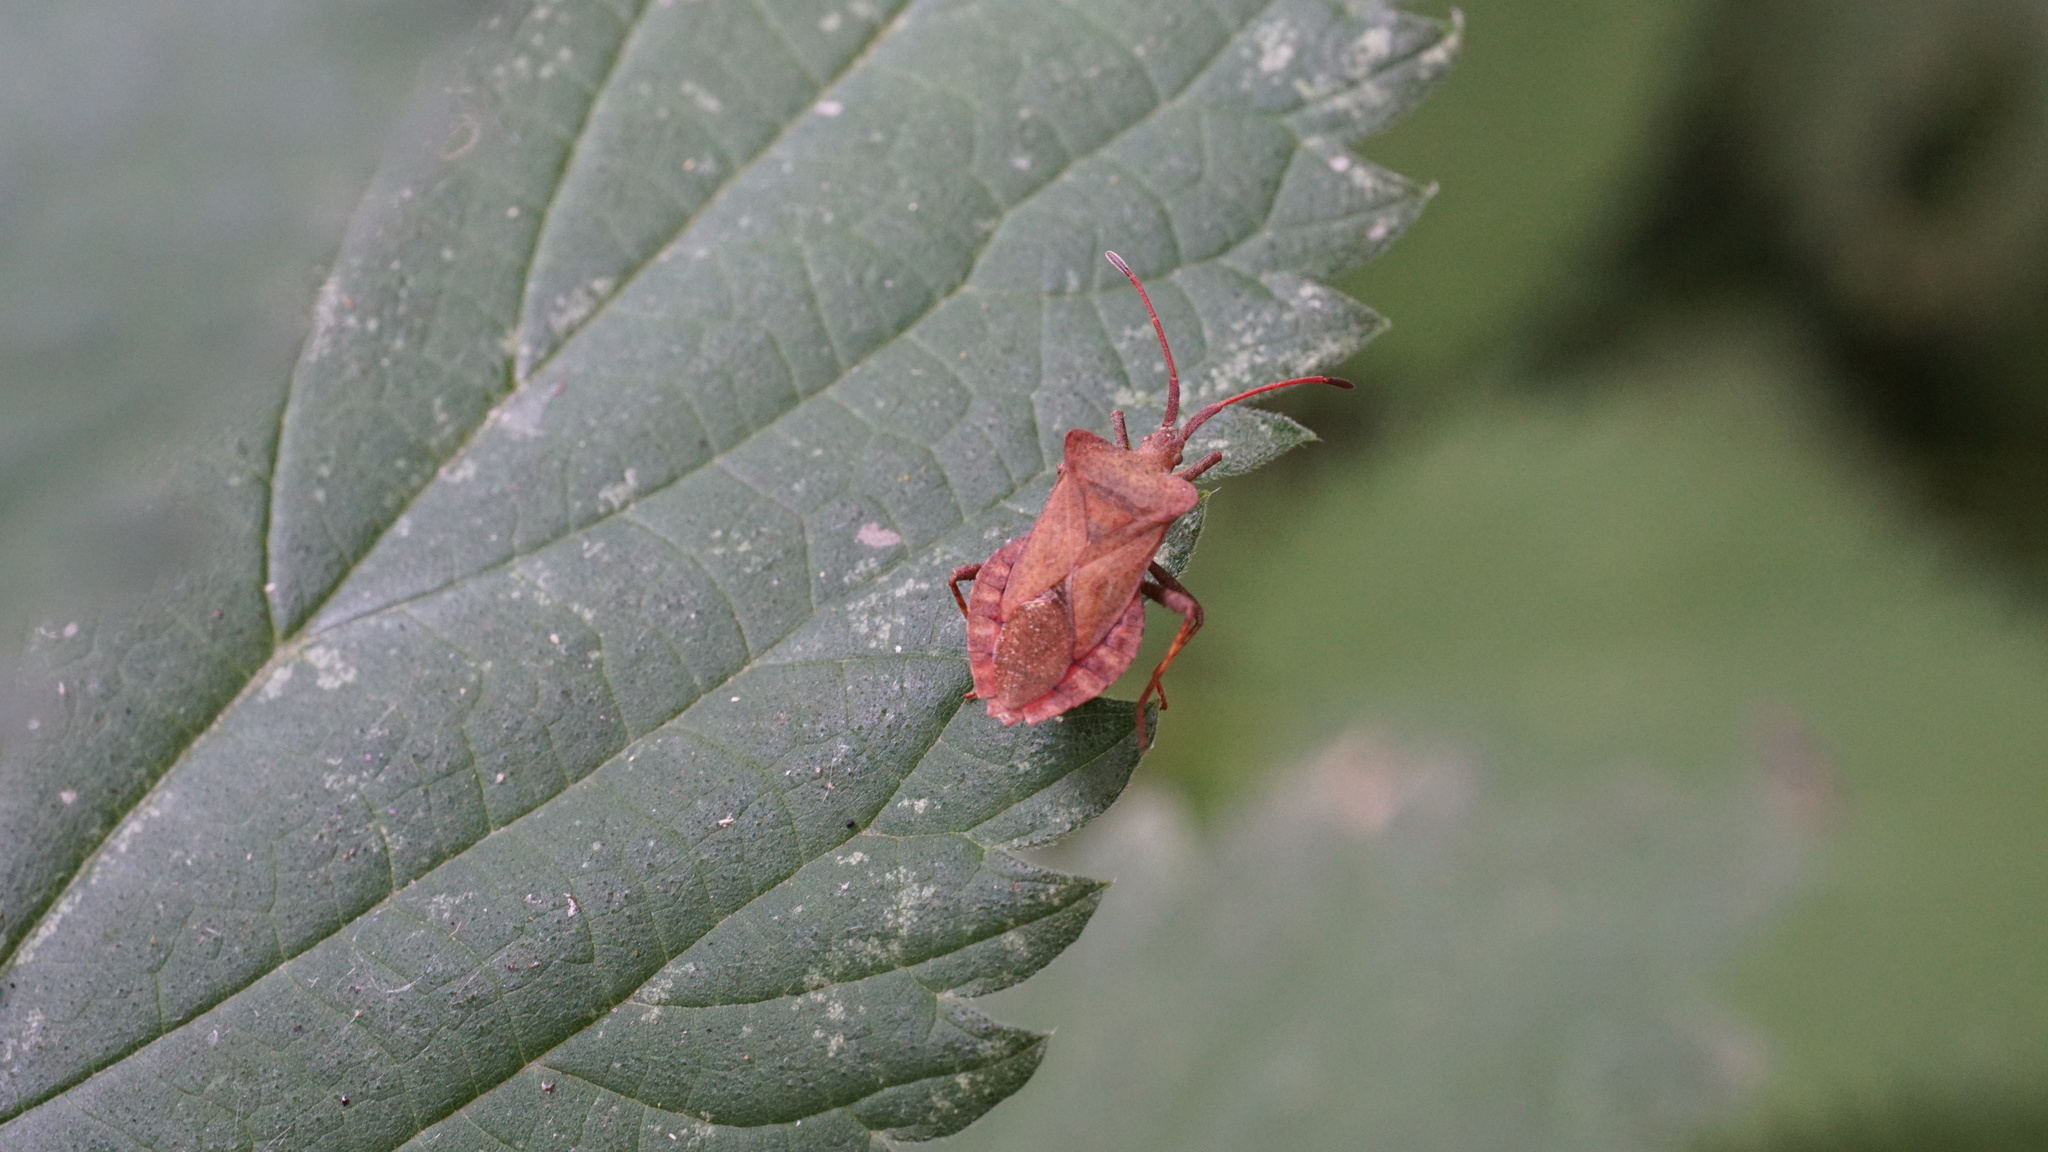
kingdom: Animalia
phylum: Arthropoda
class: Insecta
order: Hemiptera
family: Coreidae
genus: Coreus
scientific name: Coreus marginatus
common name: Dock bug
